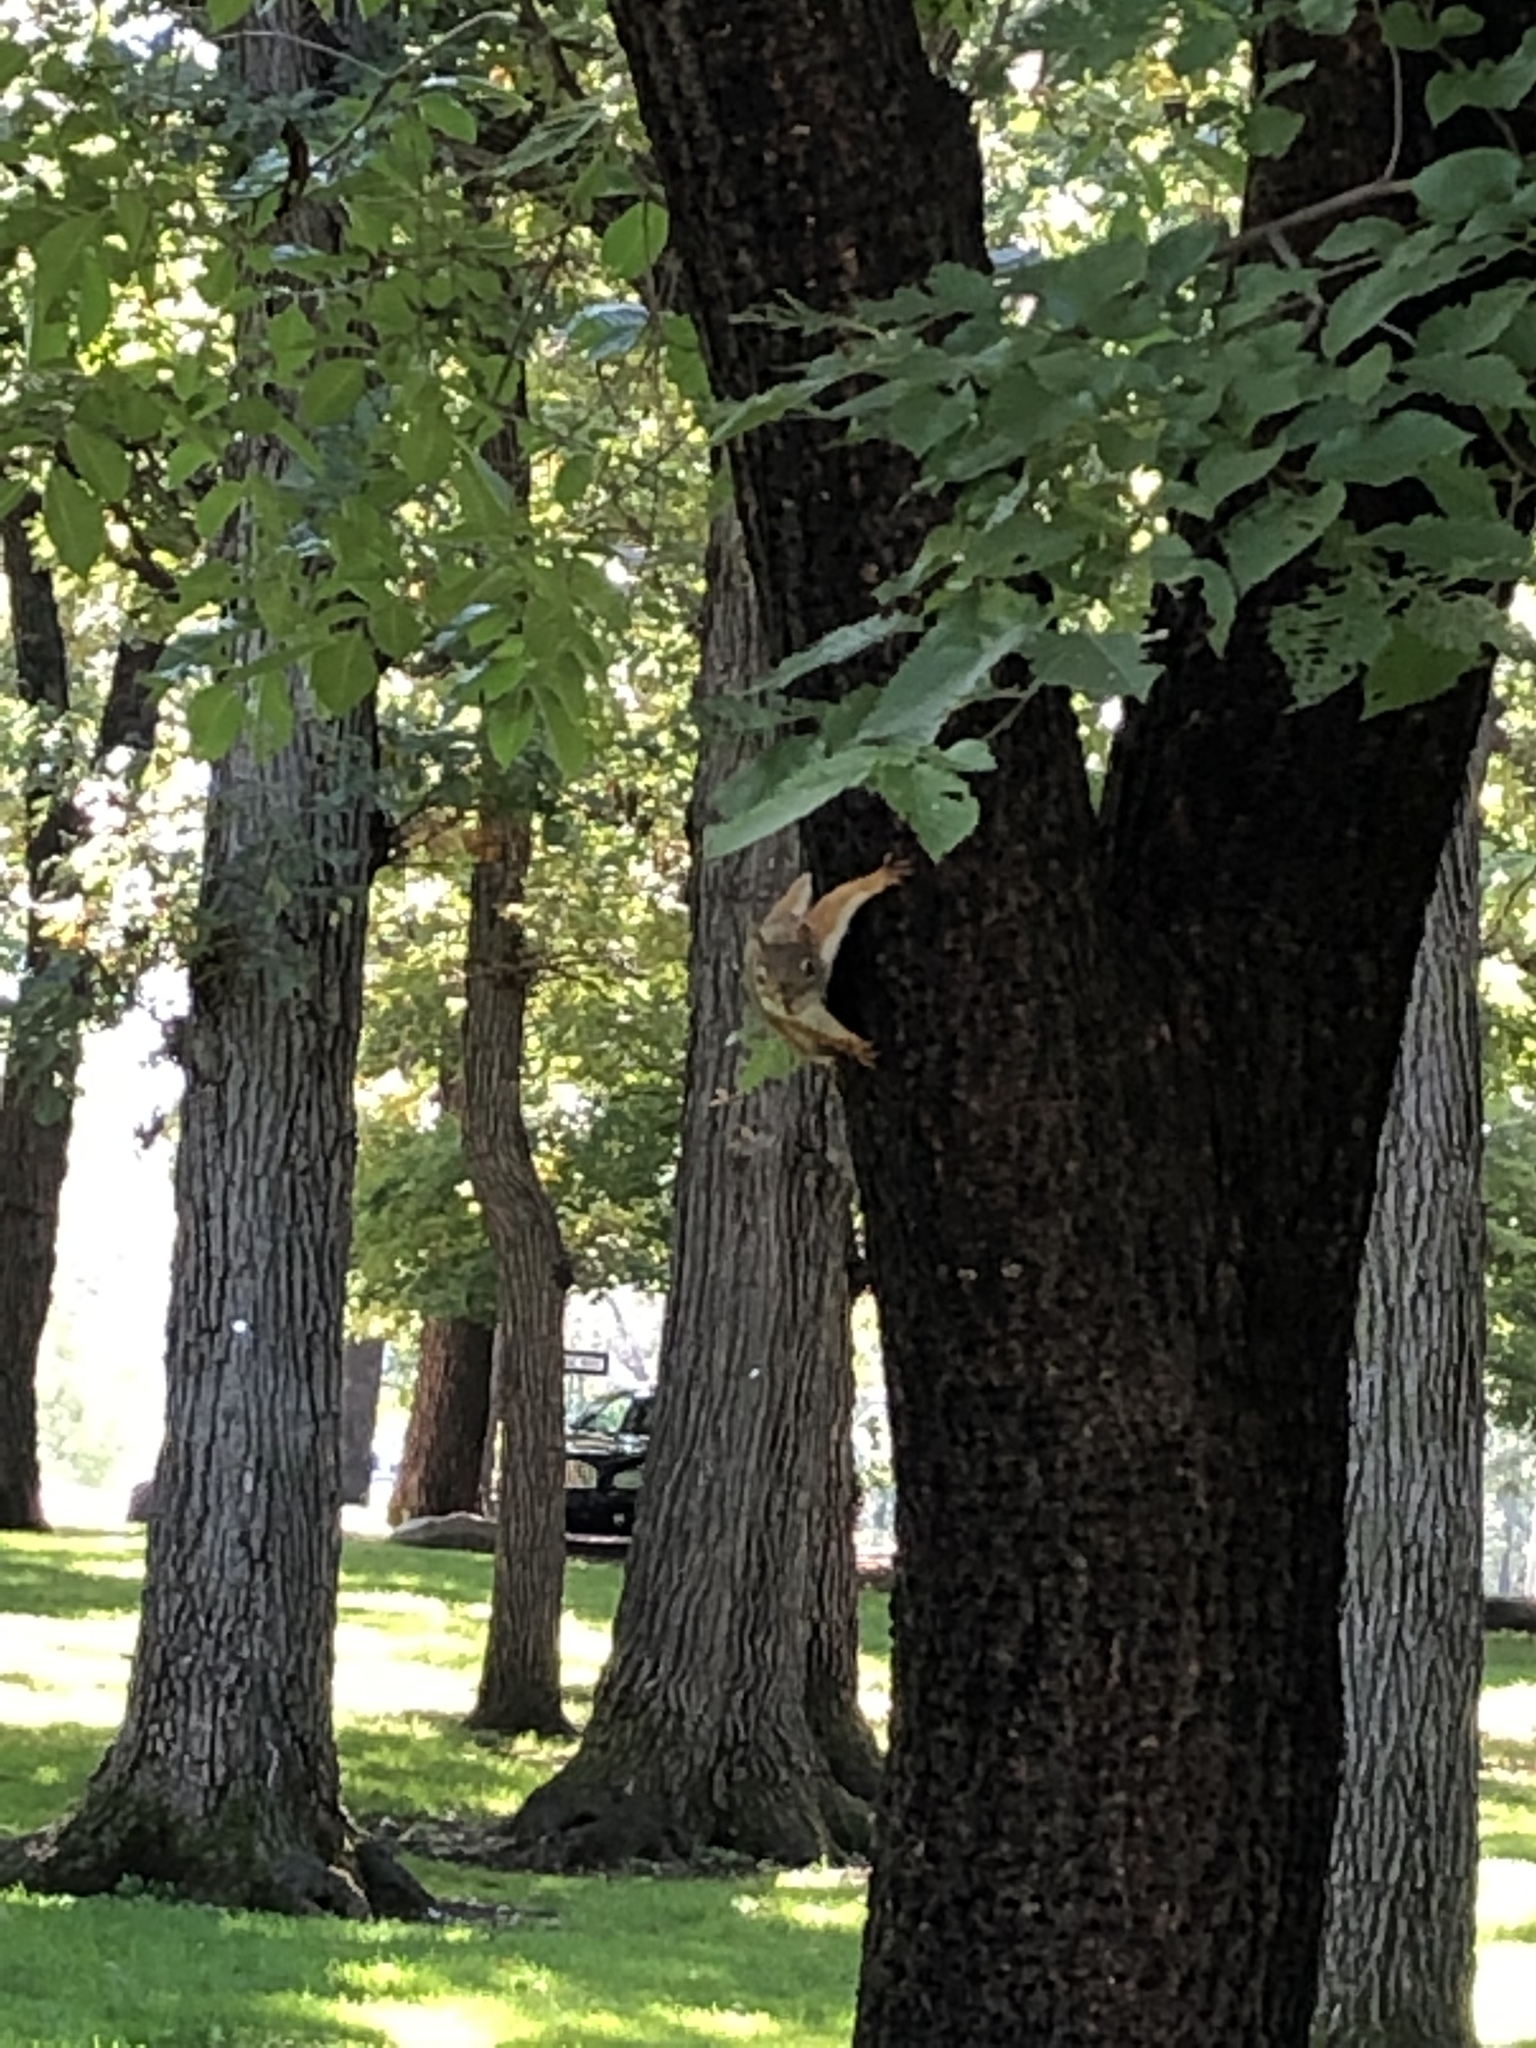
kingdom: Animalia
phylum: Chordata
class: Mammalia
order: Rodentia
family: Sciuridae
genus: Tamiasciurus
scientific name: Tamiasciurus hudsonicus
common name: Red squirrel
